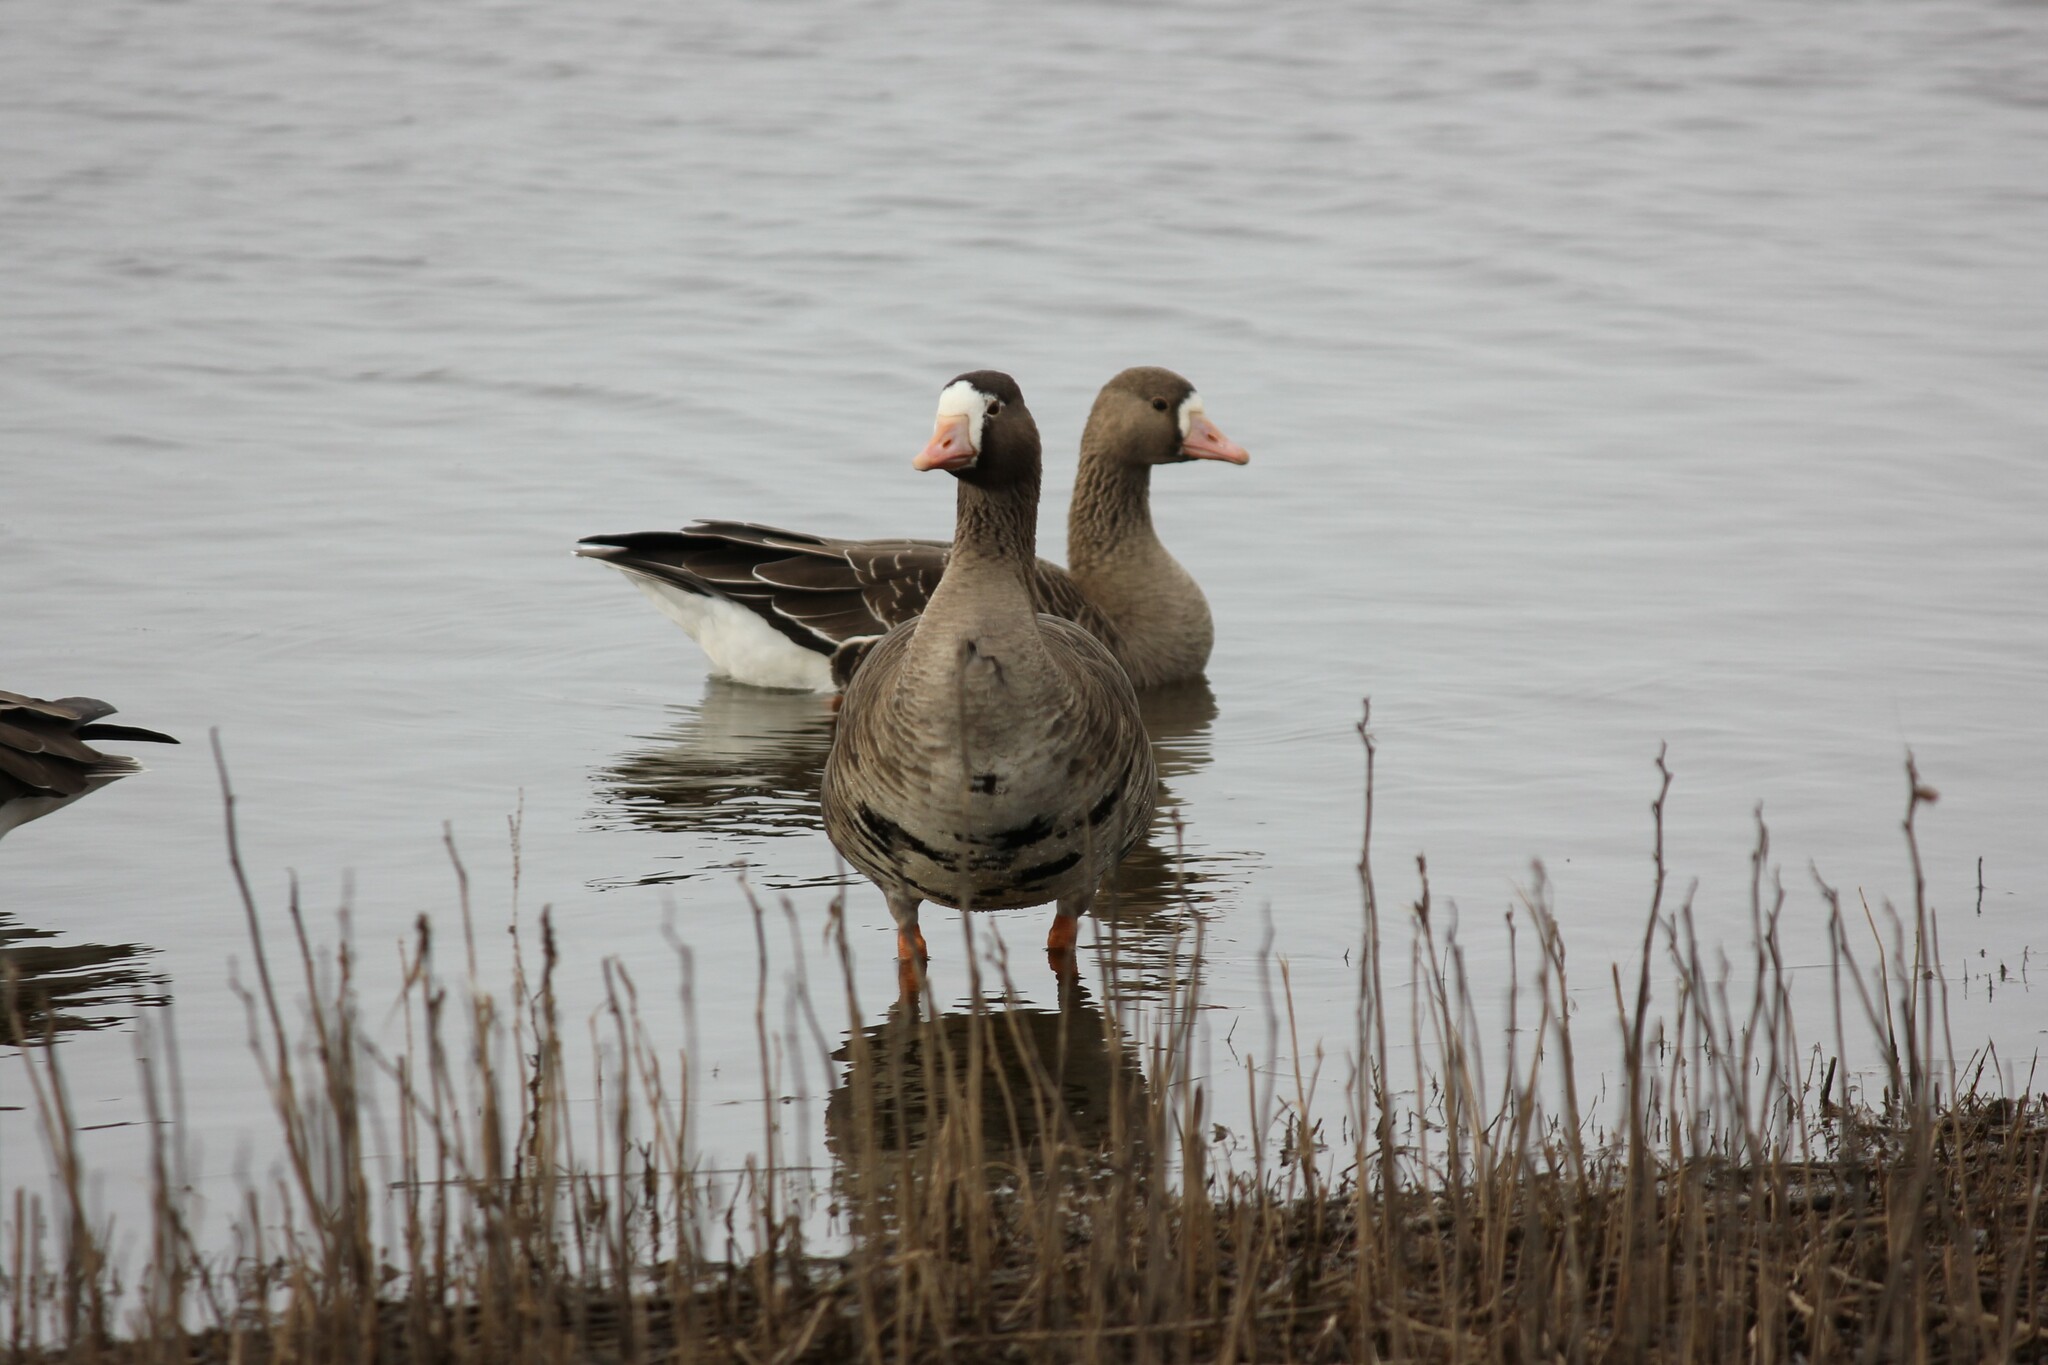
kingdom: Animalia
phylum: Chordata
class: Aves
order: Anseriformes
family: Anatidae
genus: Anser
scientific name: Anser albifrons
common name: Greater white-fronted goose
